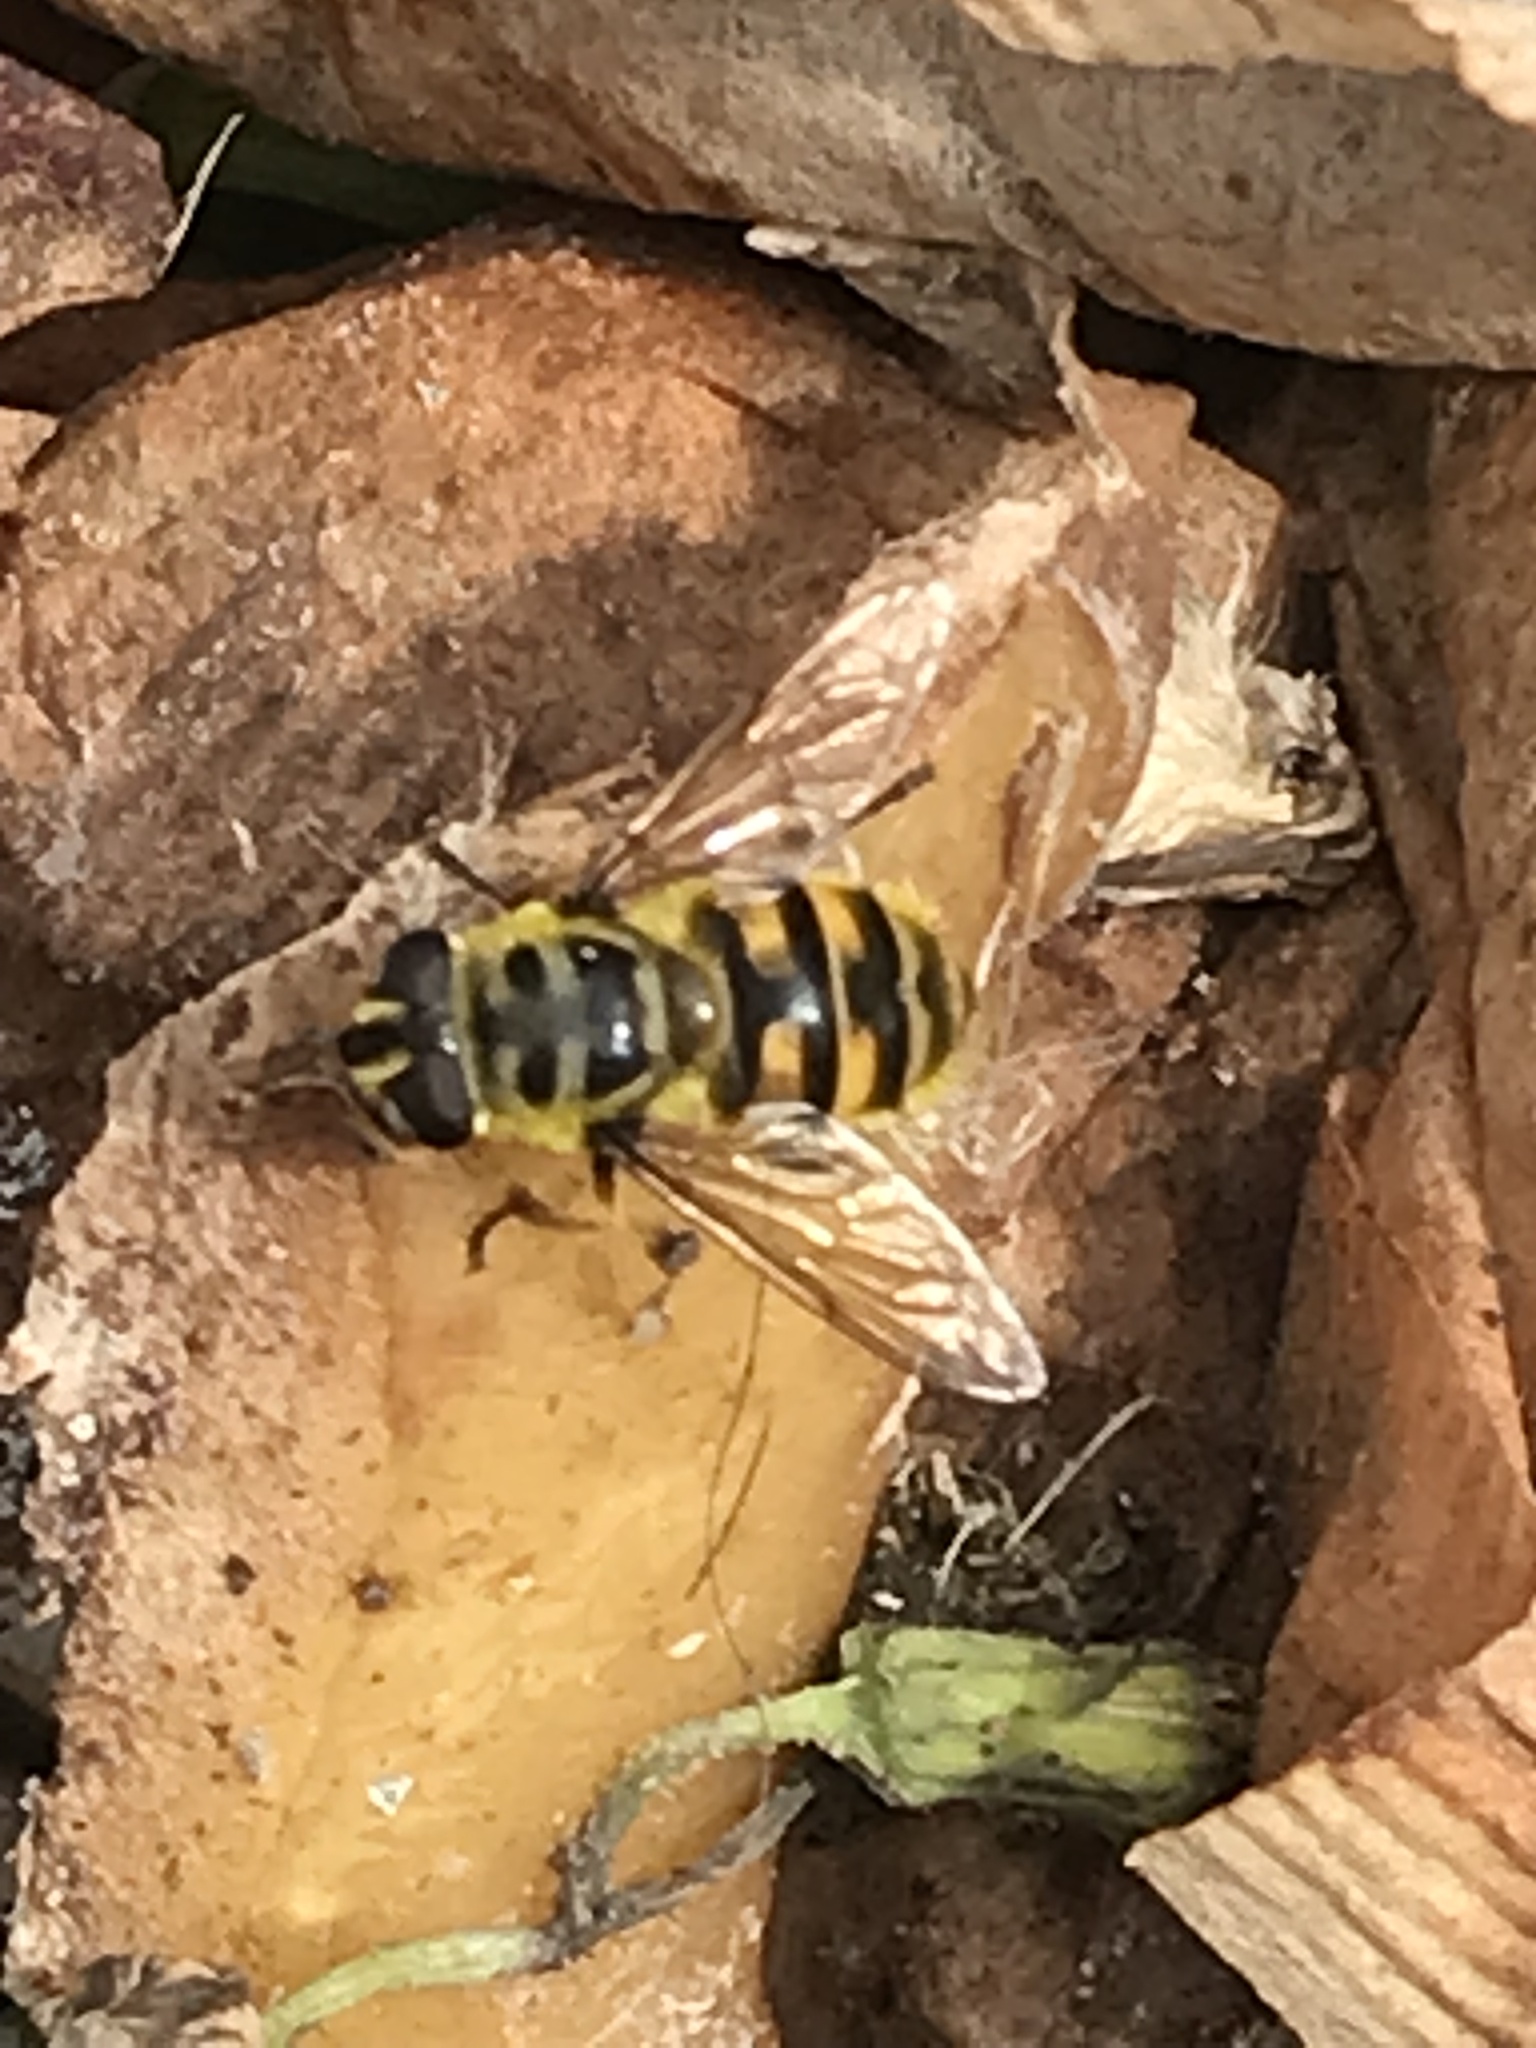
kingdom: Animalia
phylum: Arthropoda
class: Insecta
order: Diptera
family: Syrphidae
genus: Myathropa
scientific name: Myathropa florea
